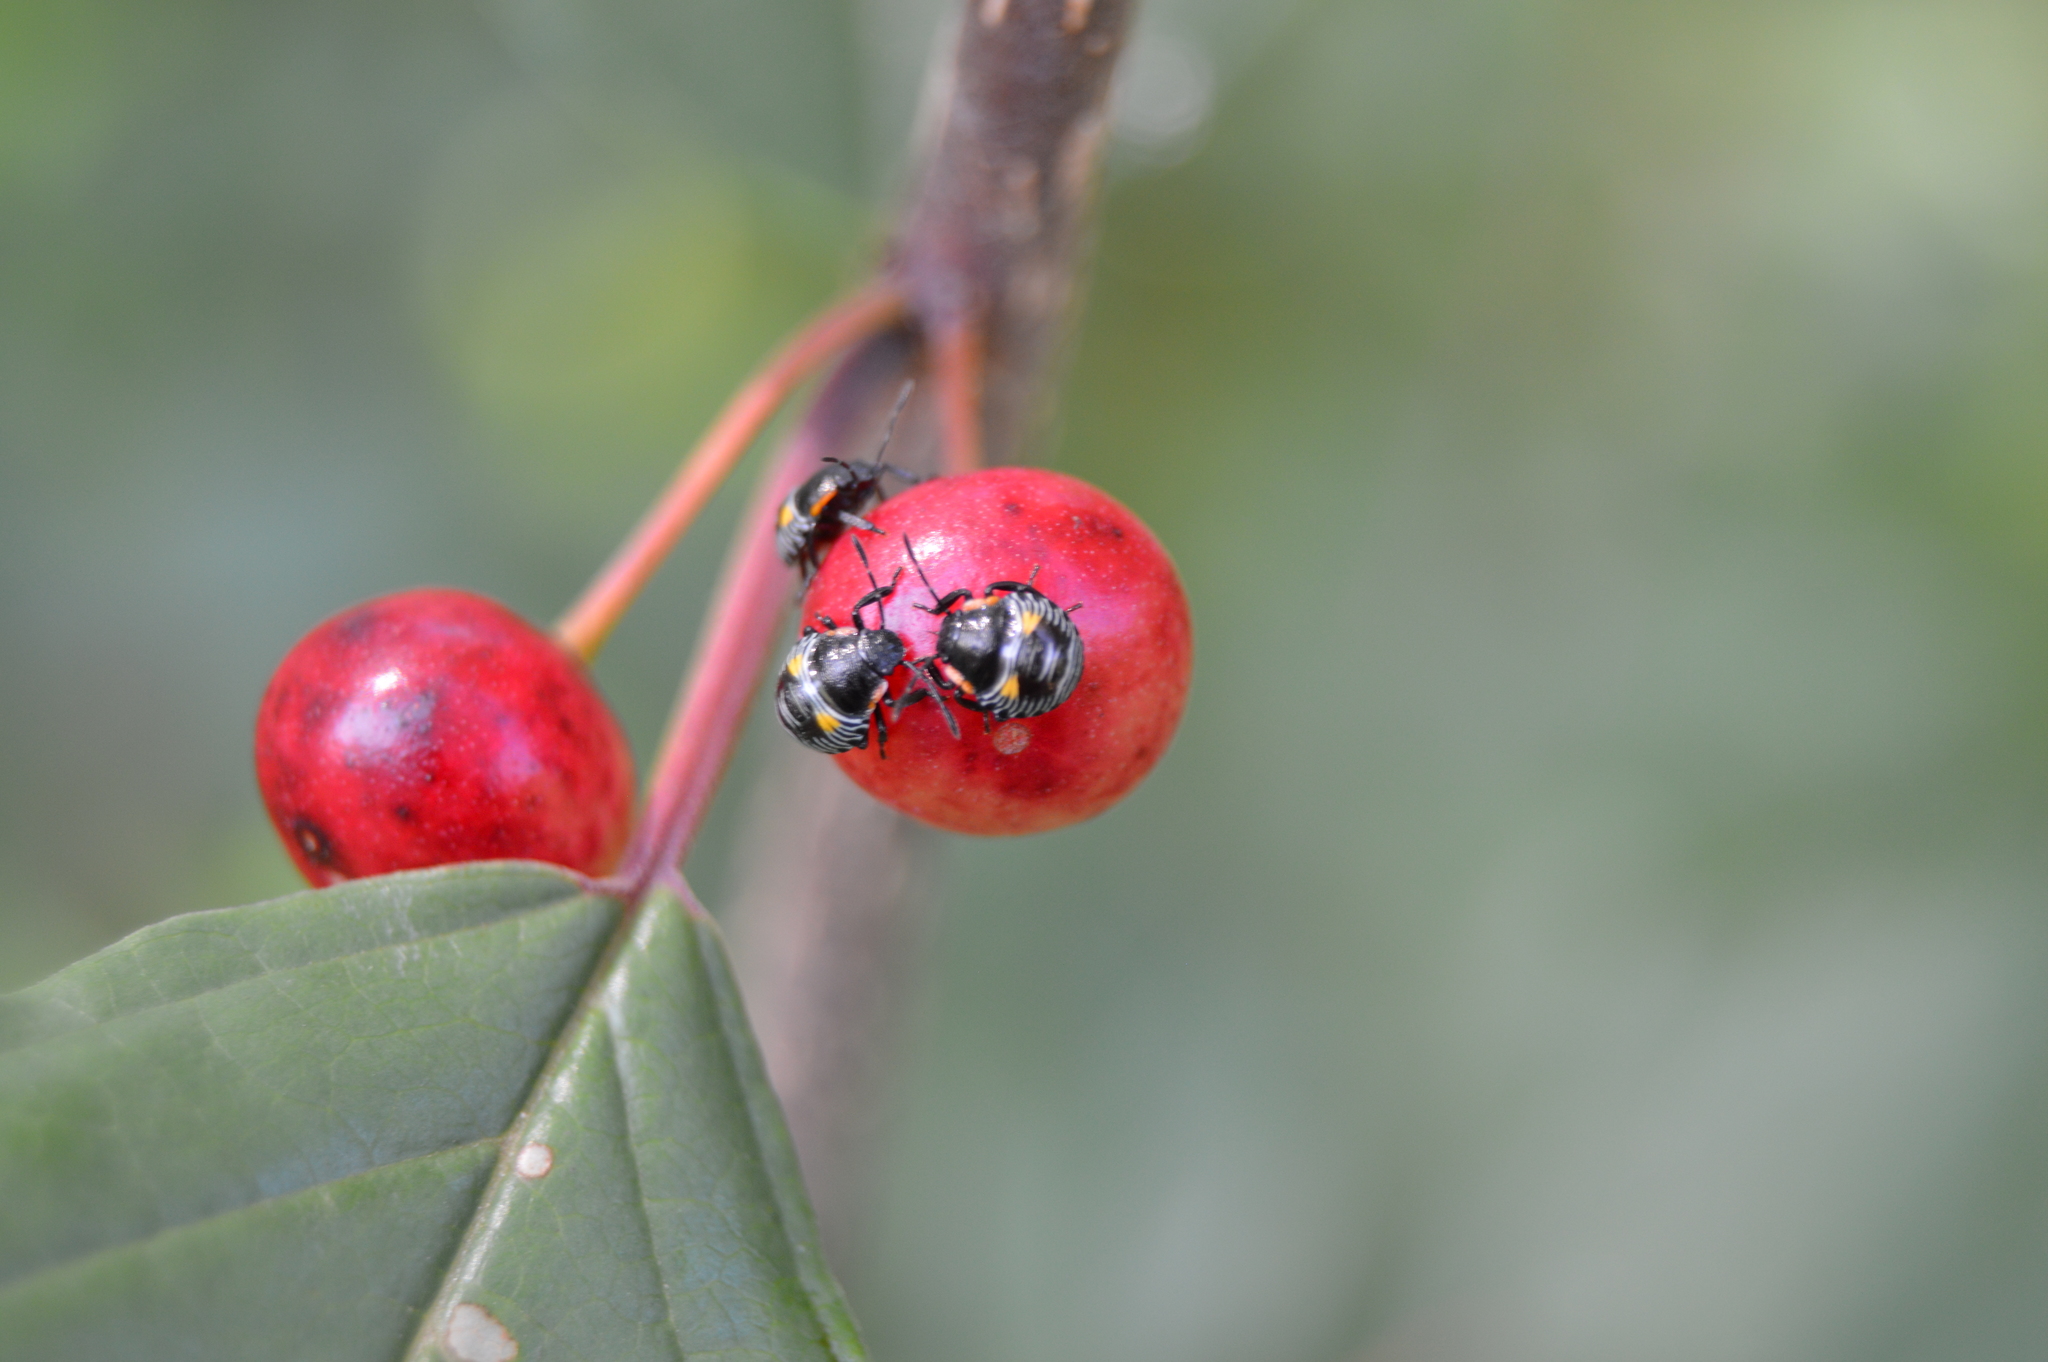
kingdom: Animalia
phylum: Arthropoda
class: Insecta
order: Hemiptera
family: Pentatomidae
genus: Chinavia
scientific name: Chinavia hilaris
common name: Green stink bug
